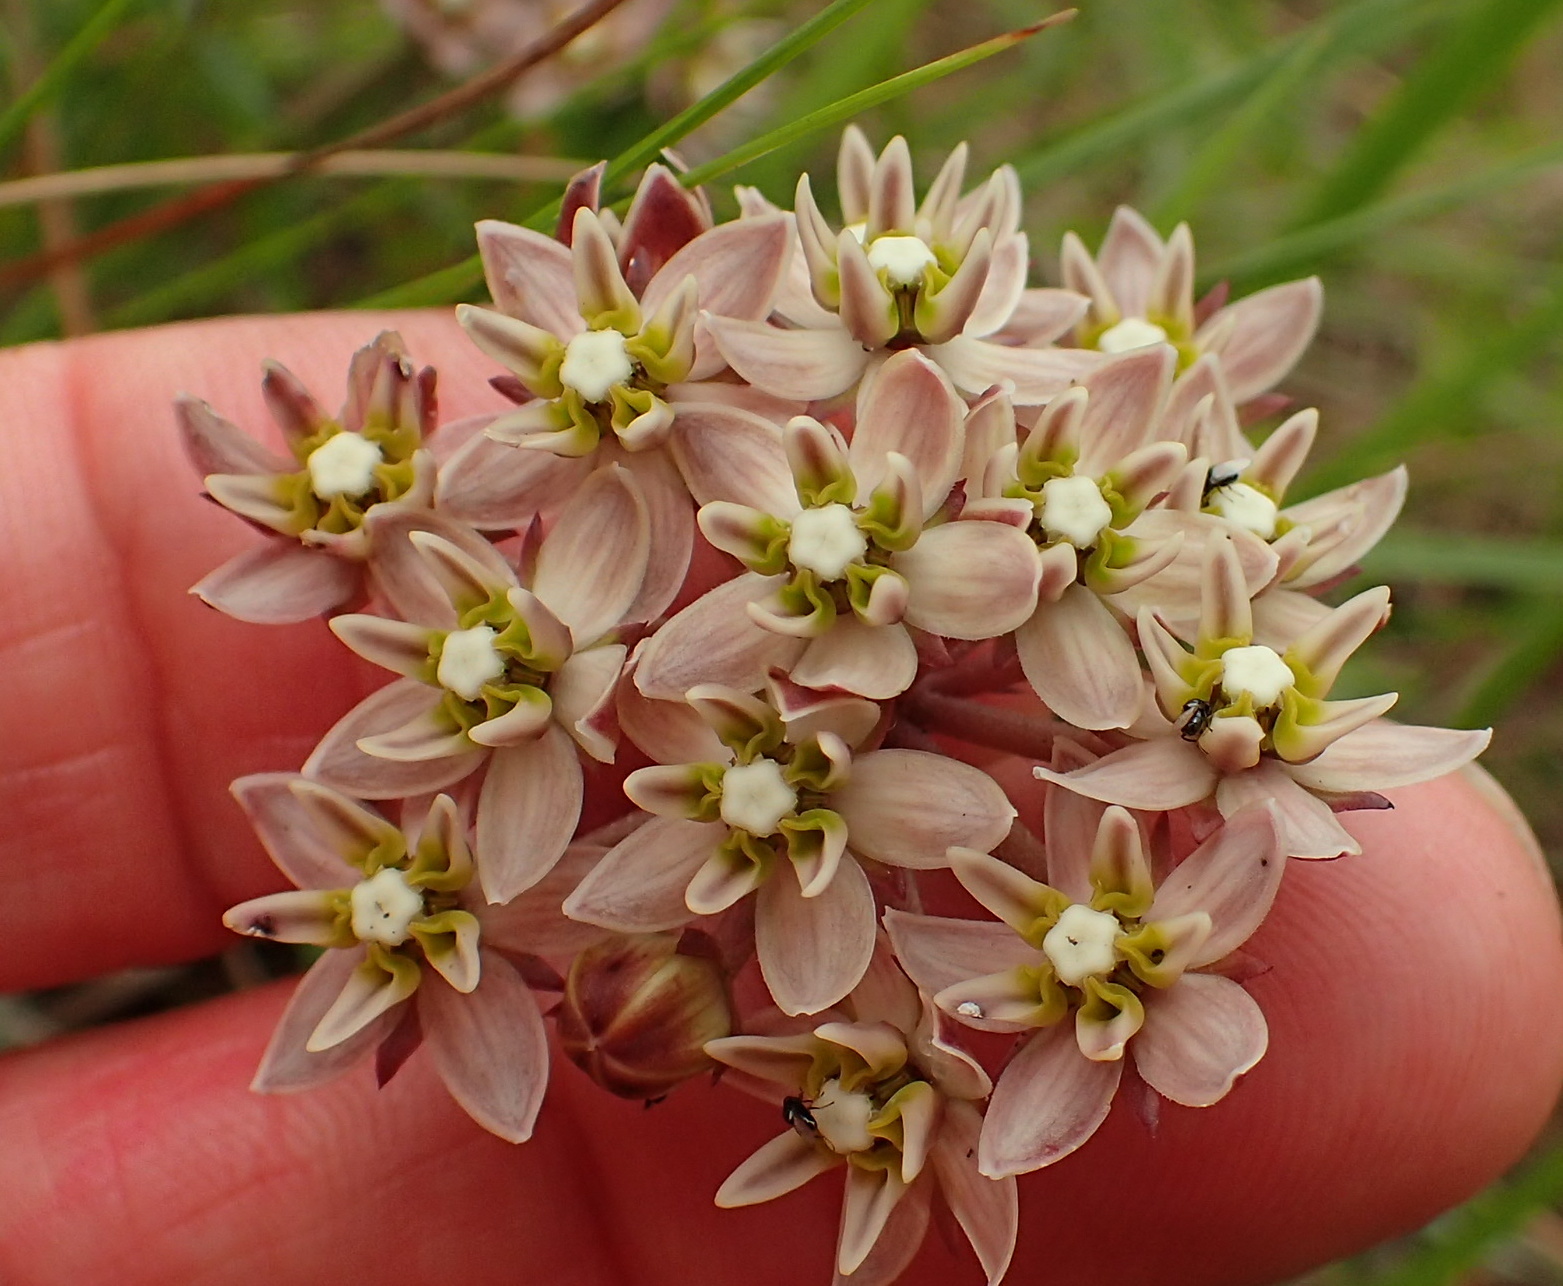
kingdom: Plantae
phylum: Tracheophyta
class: Magnoliopsida
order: Gentianales
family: Apocynaceae
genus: Asclepias
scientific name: Asclepias flexuosa
